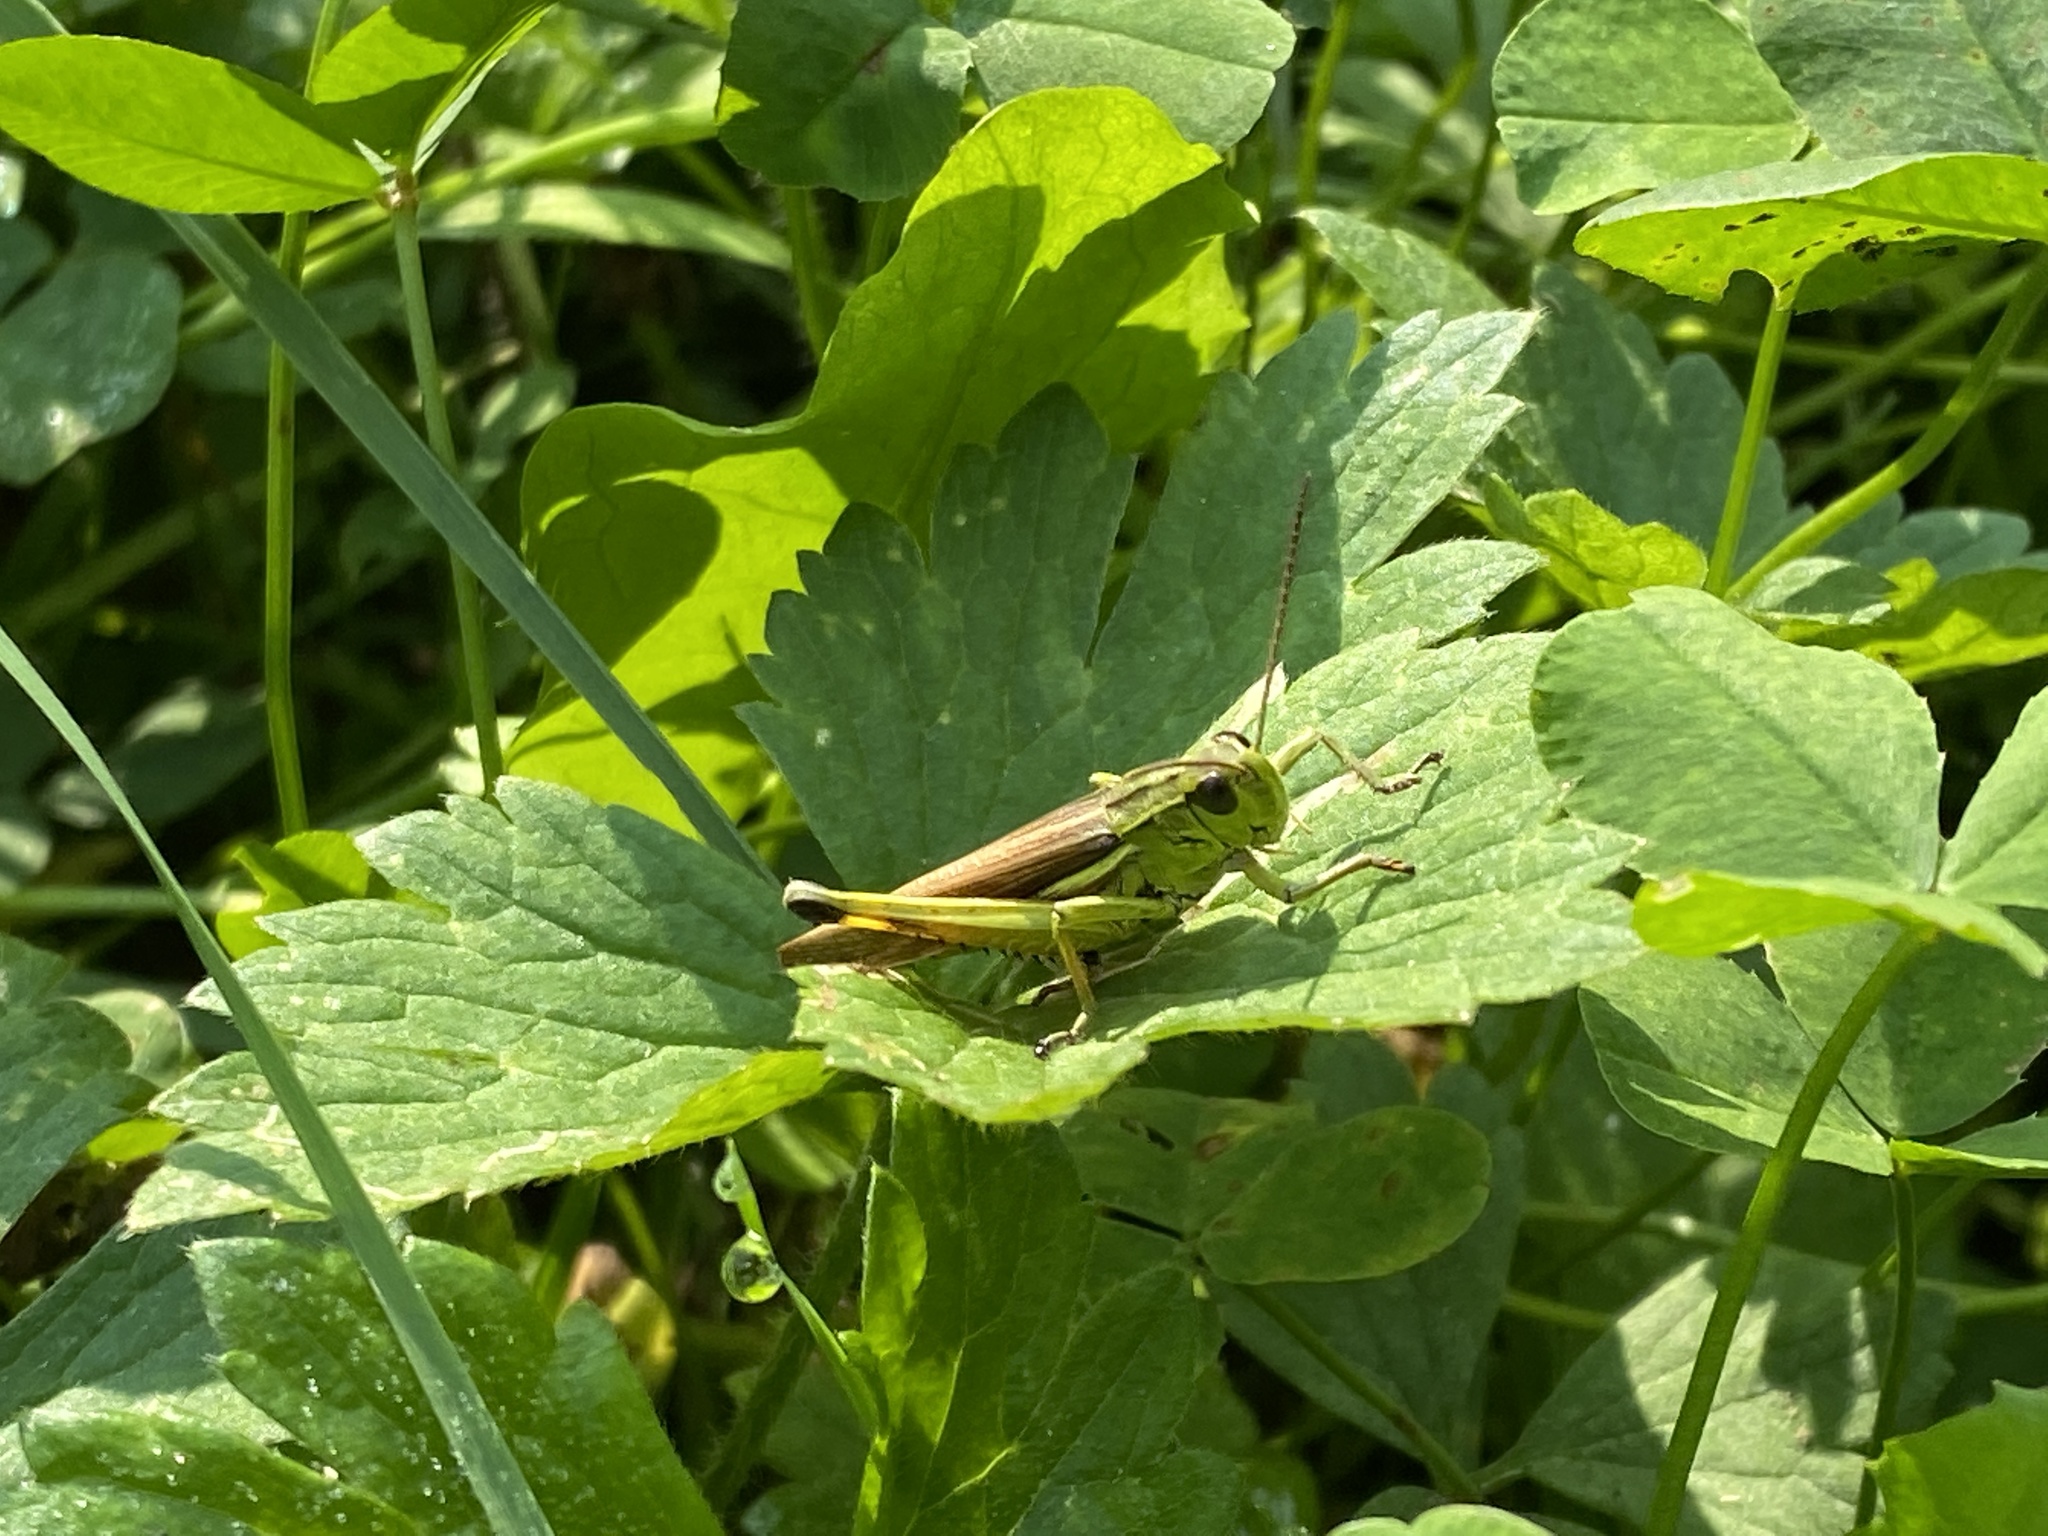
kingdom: Animalia
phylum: Arthropoda
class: Insecta
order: Orthoptera
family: Acrididae
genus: Stethophyma
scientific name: Stethophyma grossum
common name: Large marsh grasshopper
